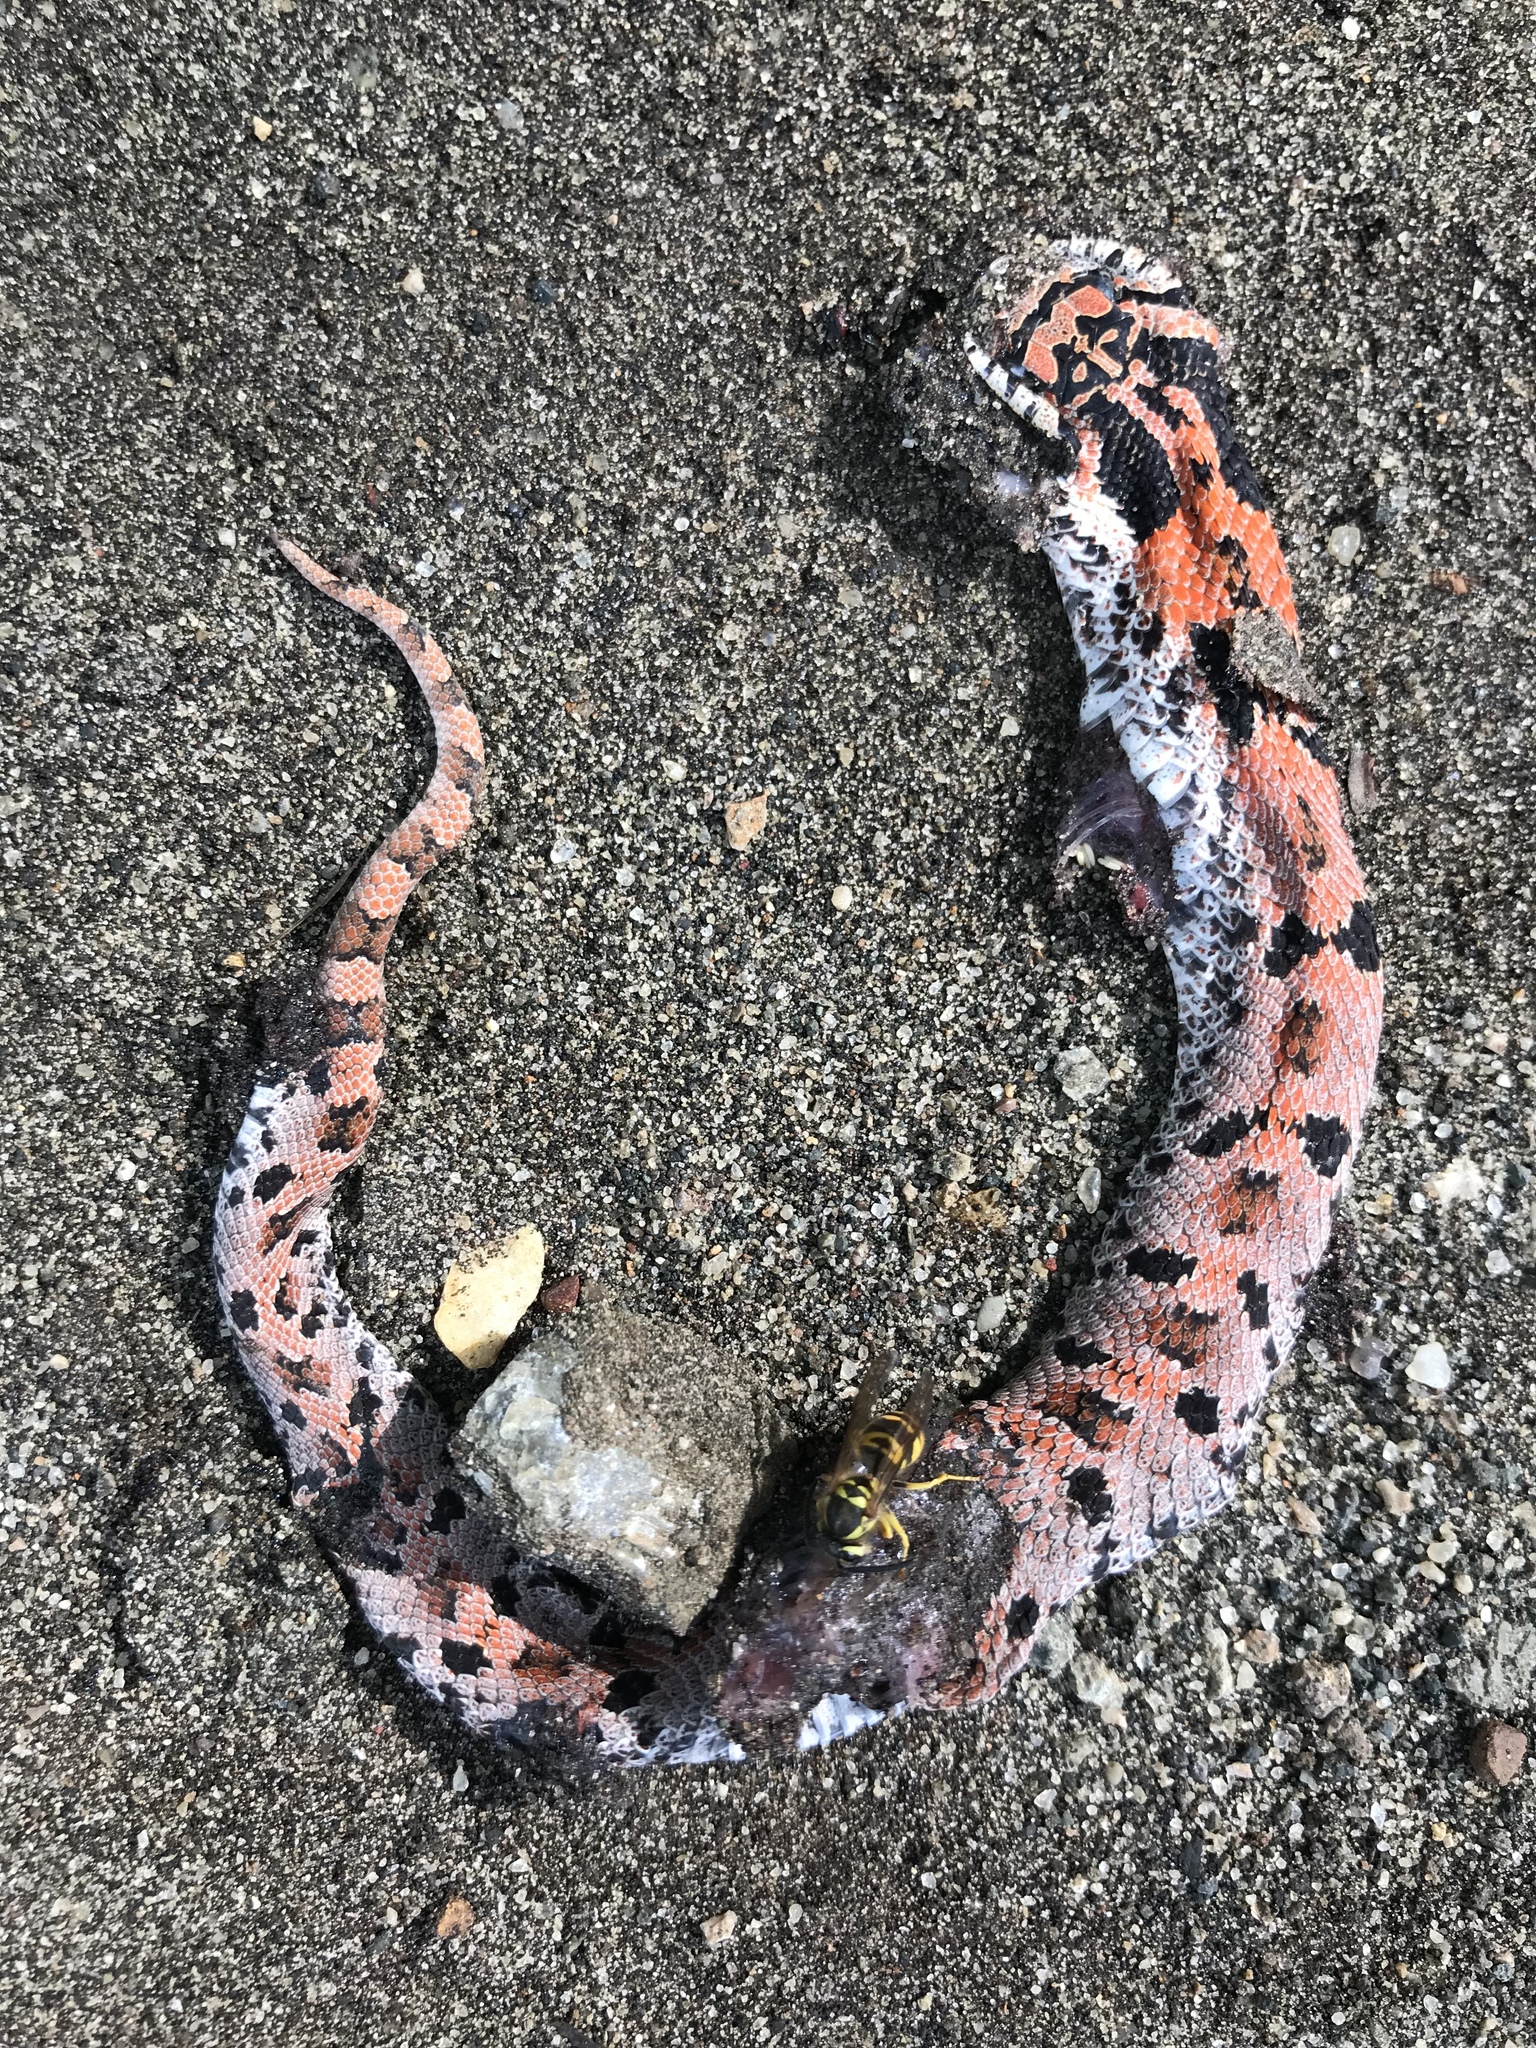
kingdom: Animalia
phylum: Chordata
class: Squamata
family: Colubridae
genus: Heterodon
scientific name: Heterodon platirhinos
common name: Eastern hognose snake
